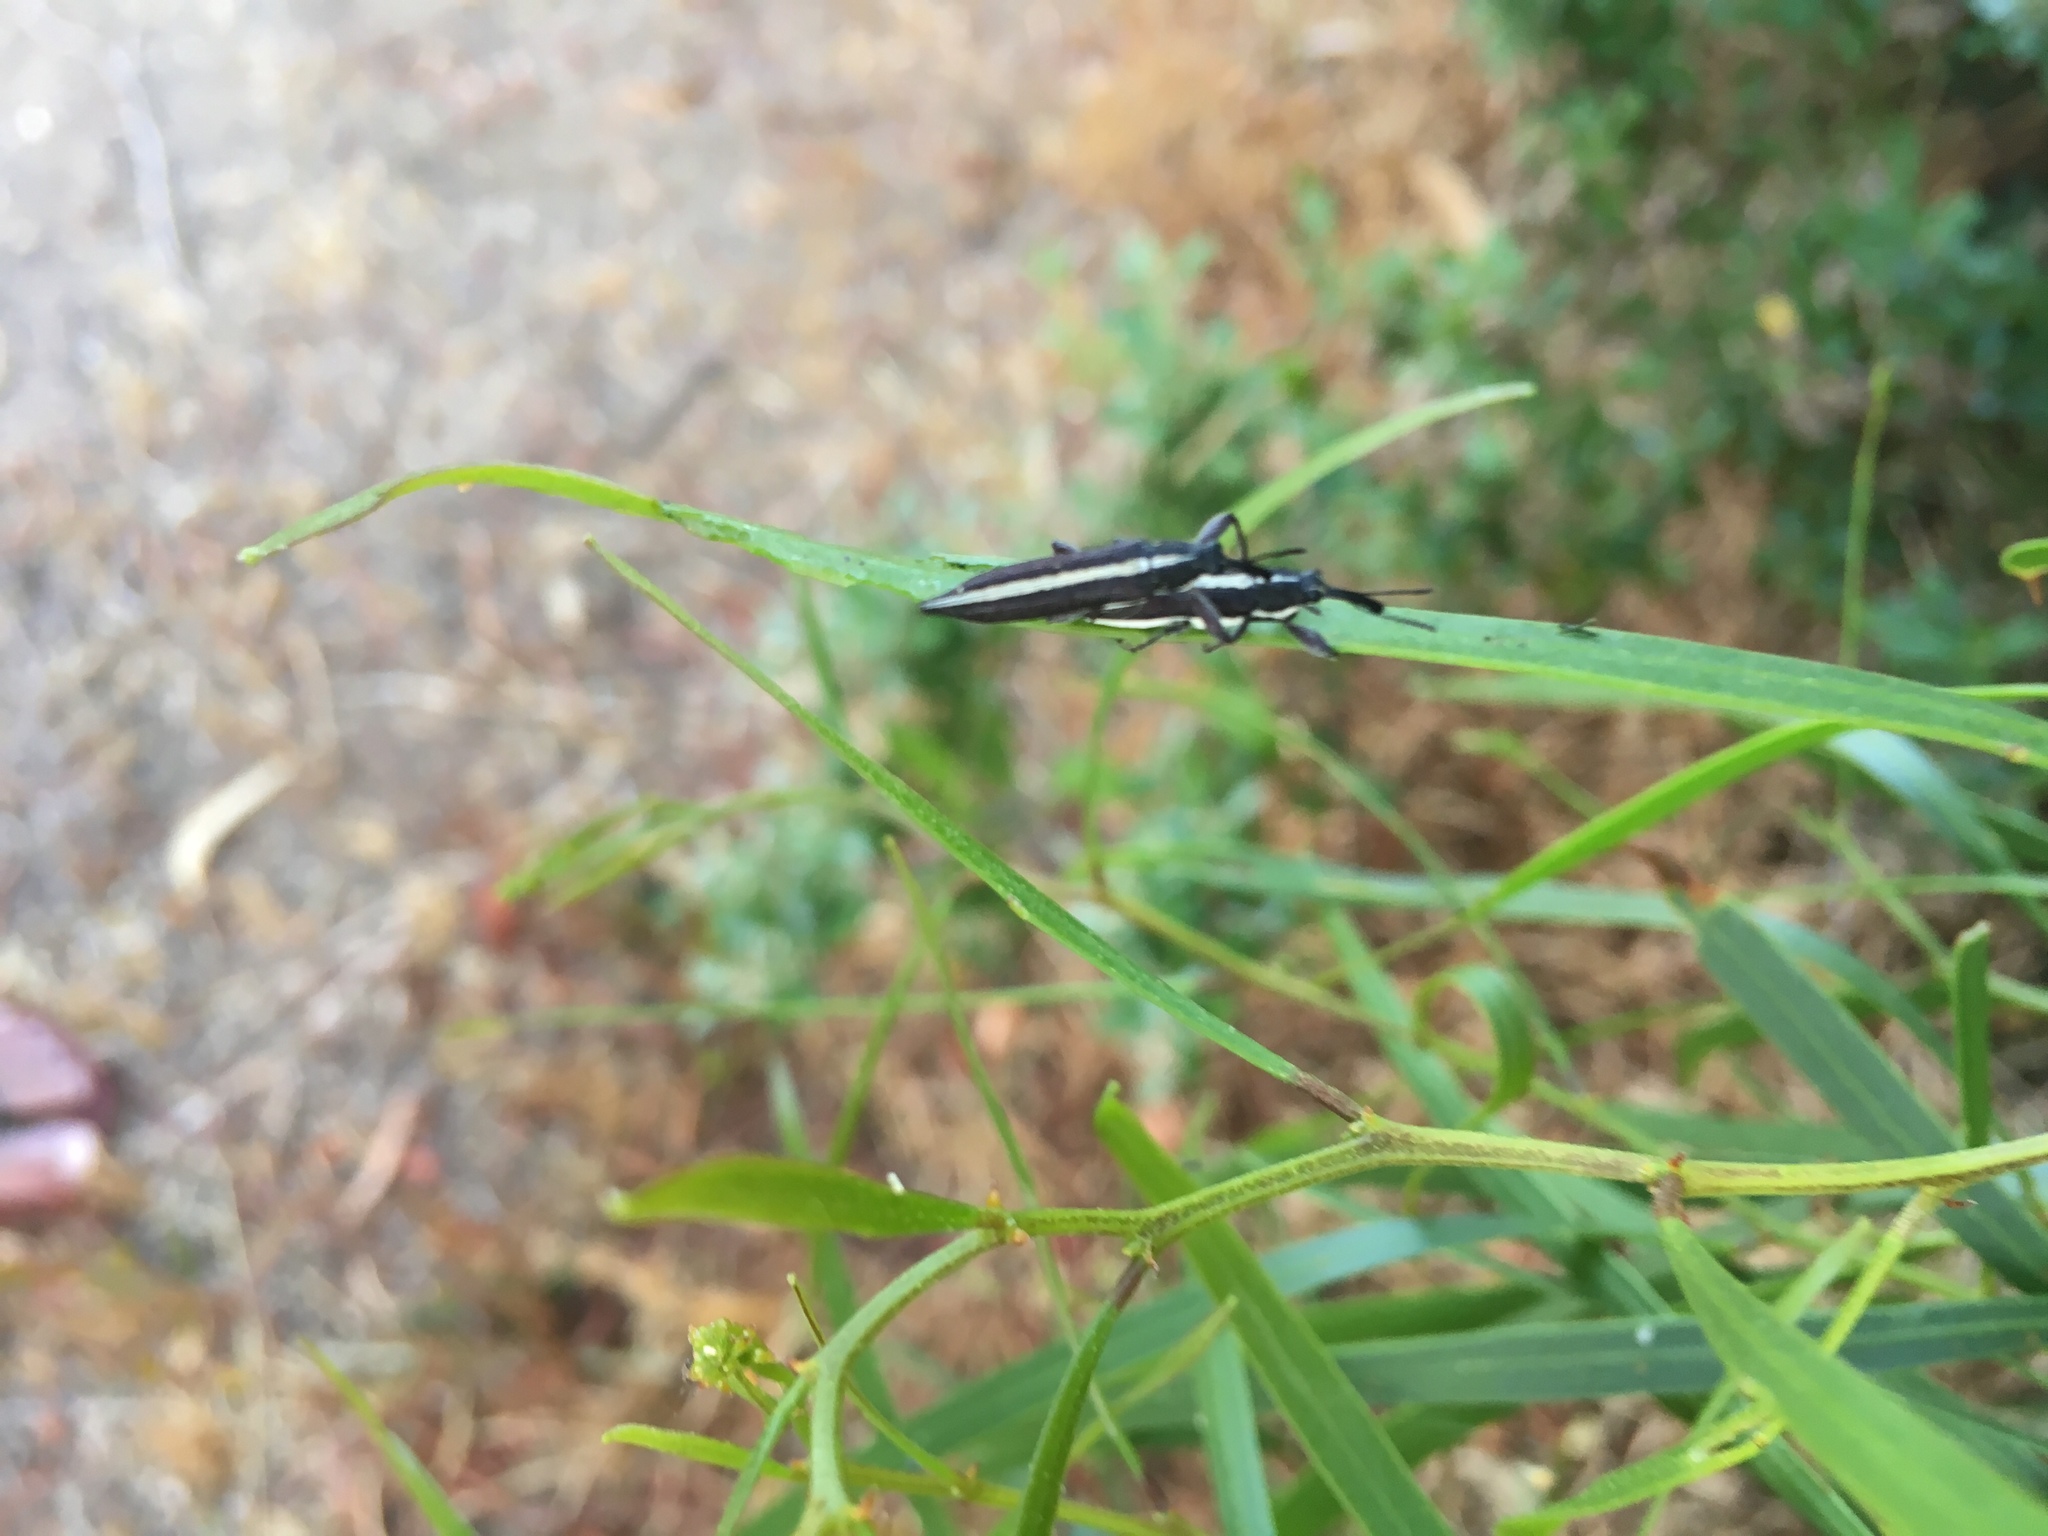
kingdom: Animalia
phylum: Arthropoda
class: Insecta
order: Coleoptera
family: Belidae
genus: Rhinotia
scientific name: Rhinotia suturalis
